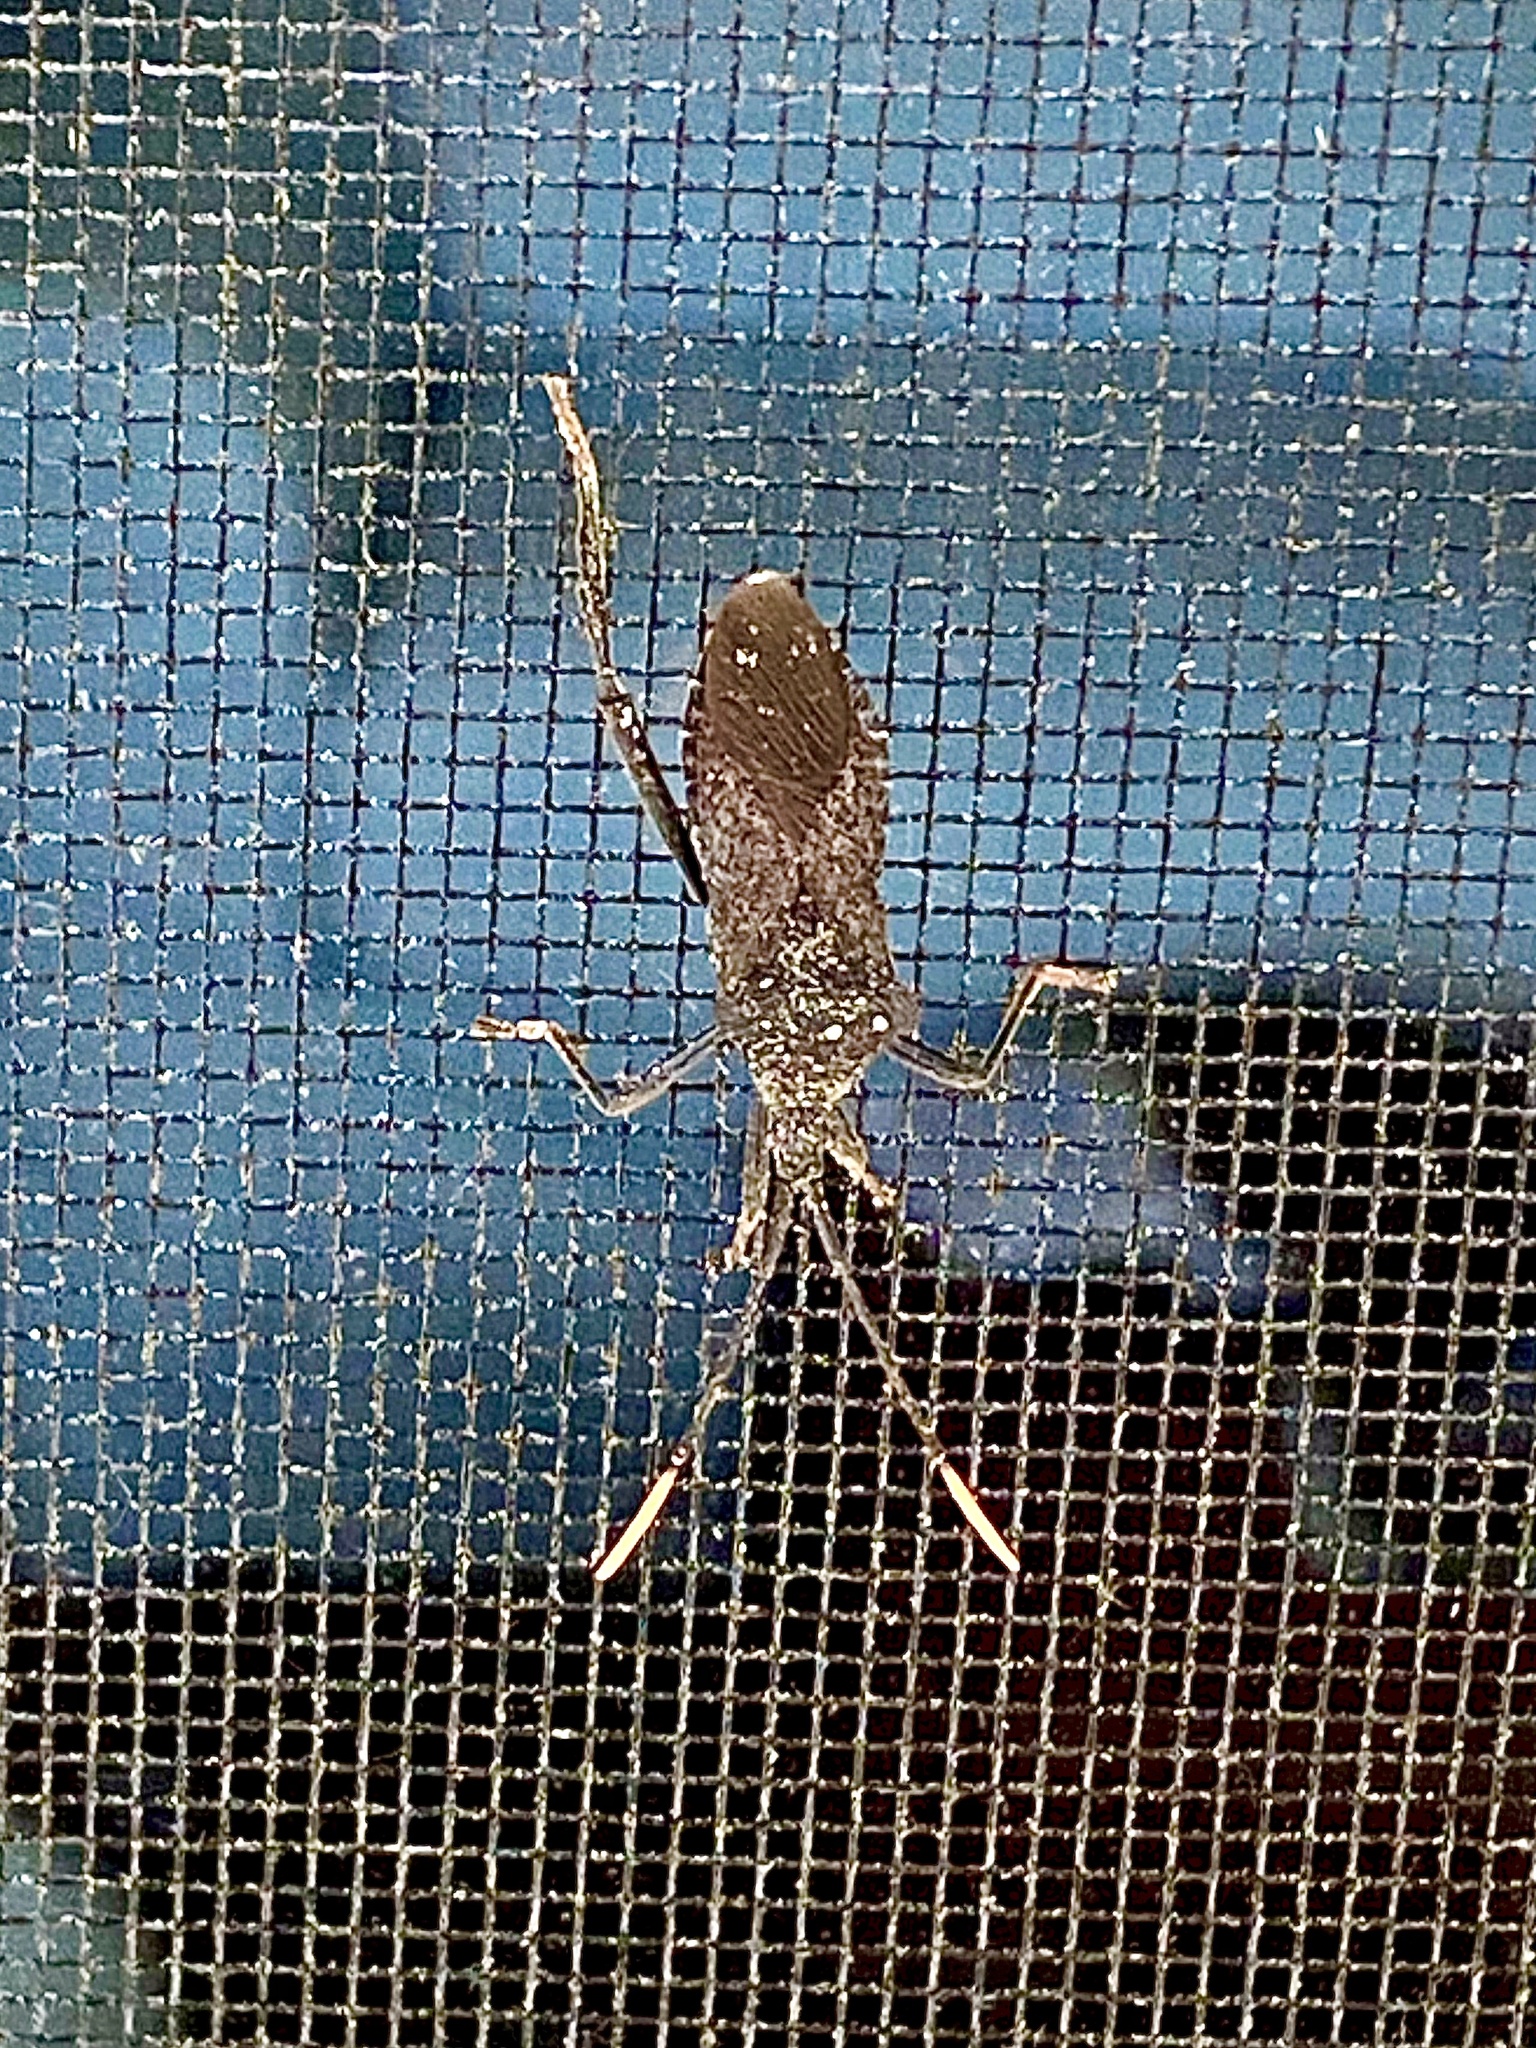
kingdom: Animalia
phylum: Arthropoda
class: Insecta
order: Hemiptera
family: Coreidae
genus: Acanthocephala
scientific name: Acanthocephala terminalis
